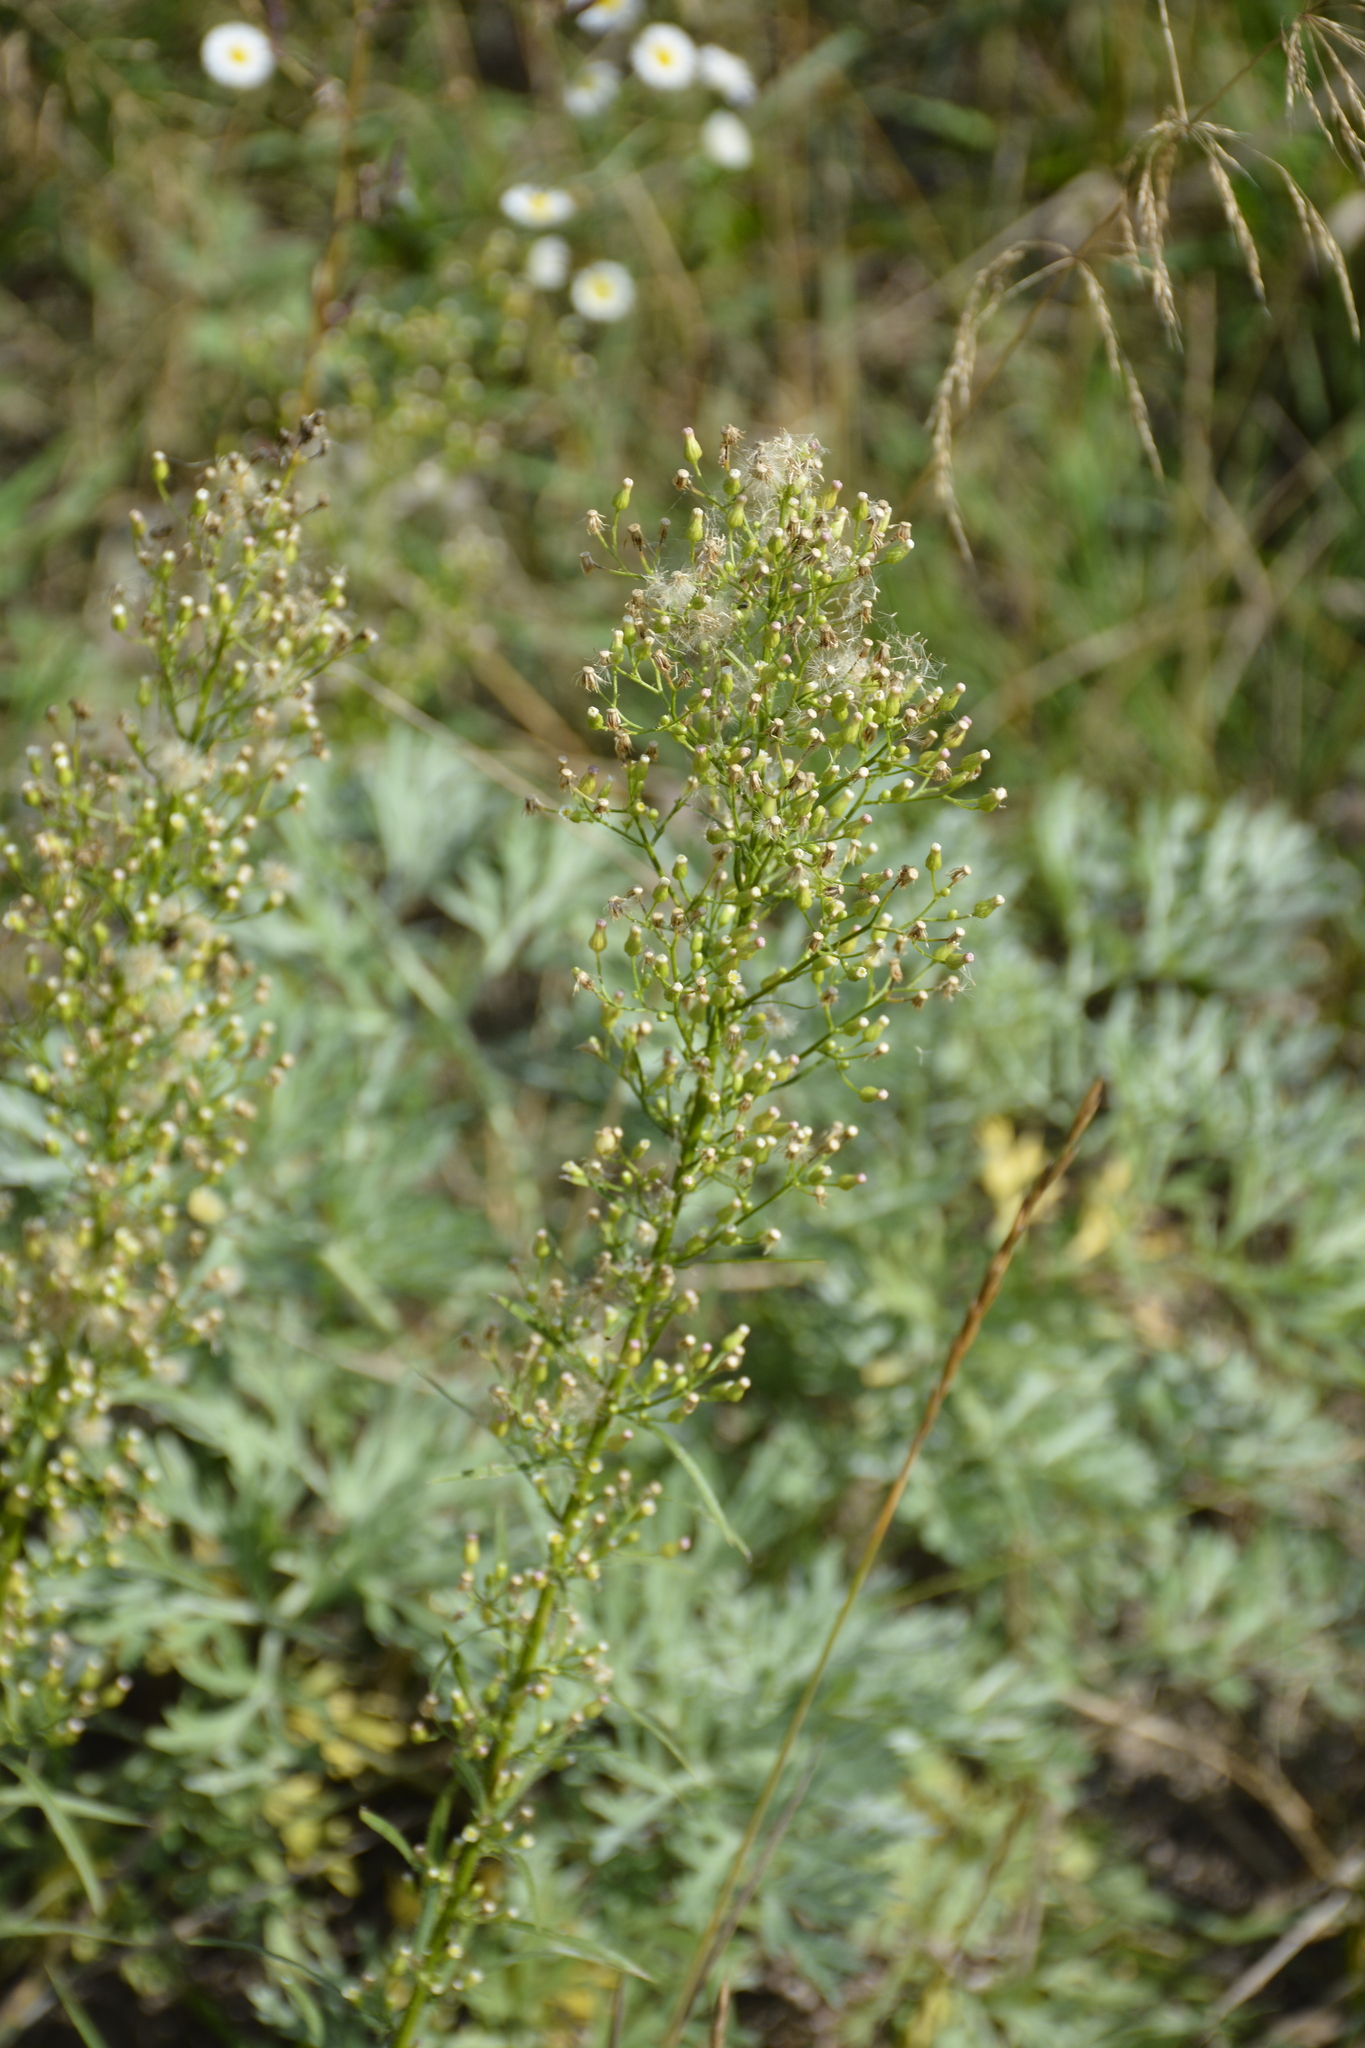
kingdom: Plantae
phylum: Tracheophyta
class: Magnoliopsida
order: Asterales
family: Asteraceae
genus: Erigeron
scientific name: Erigeron canadensis
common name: Canadian fleabane
